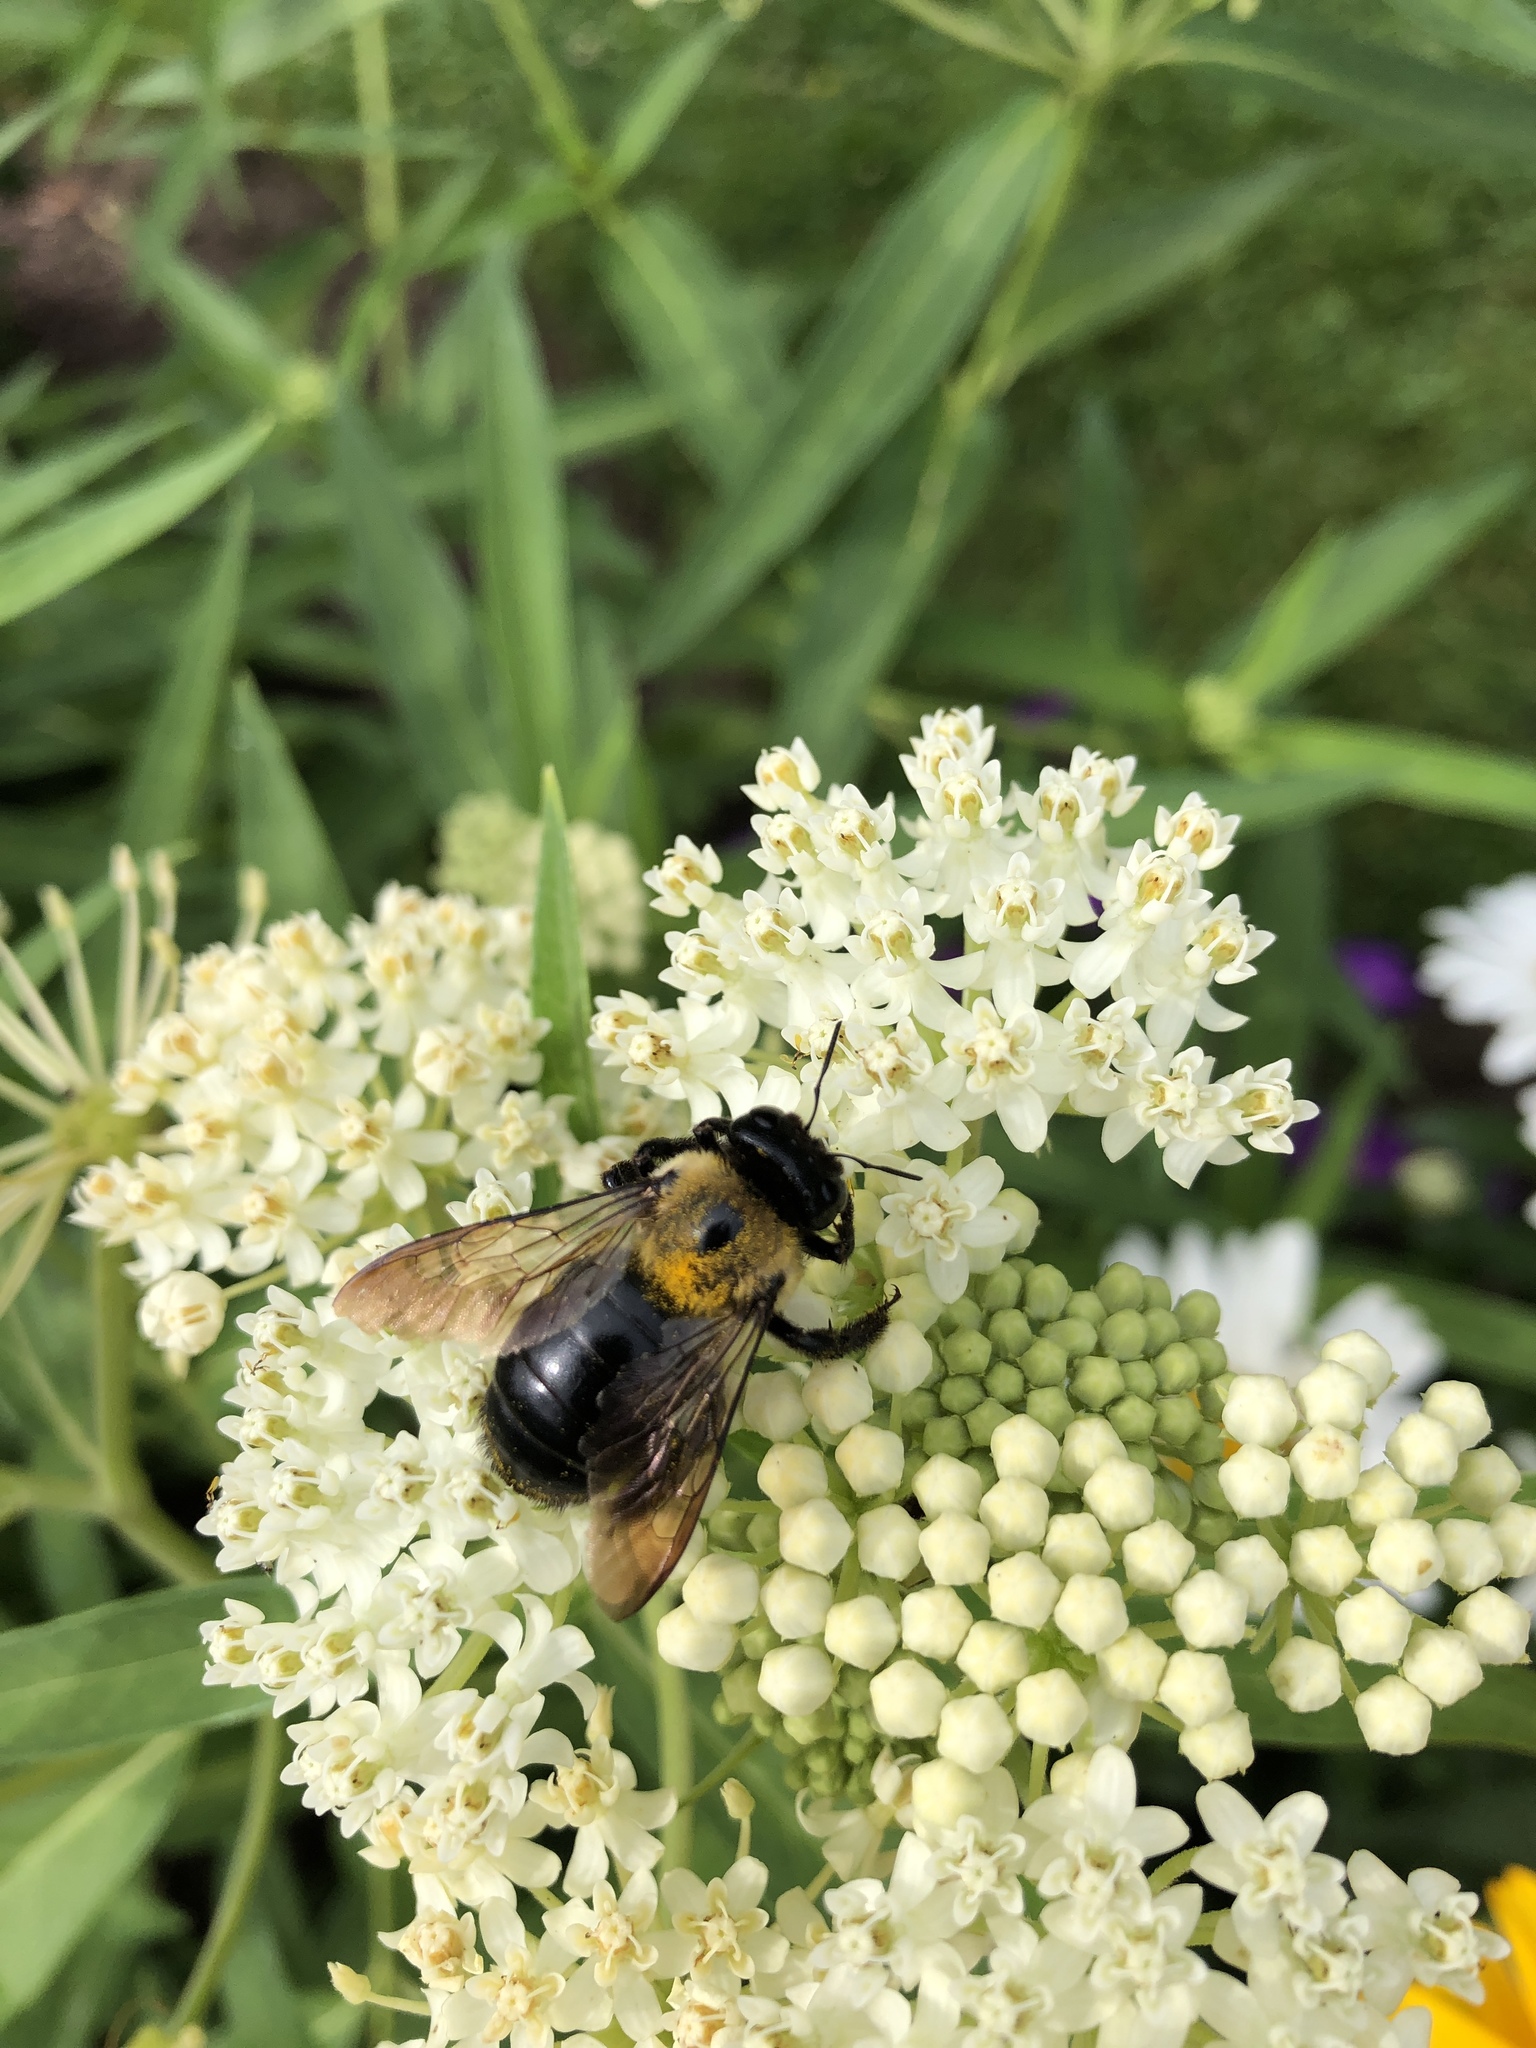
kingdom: Animalia
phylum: Arthropoda
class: Insecta
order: Hymenoptera
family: Apidae
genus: Xylocopa
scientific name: Xylocopa virginica
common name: Carpenter bee
